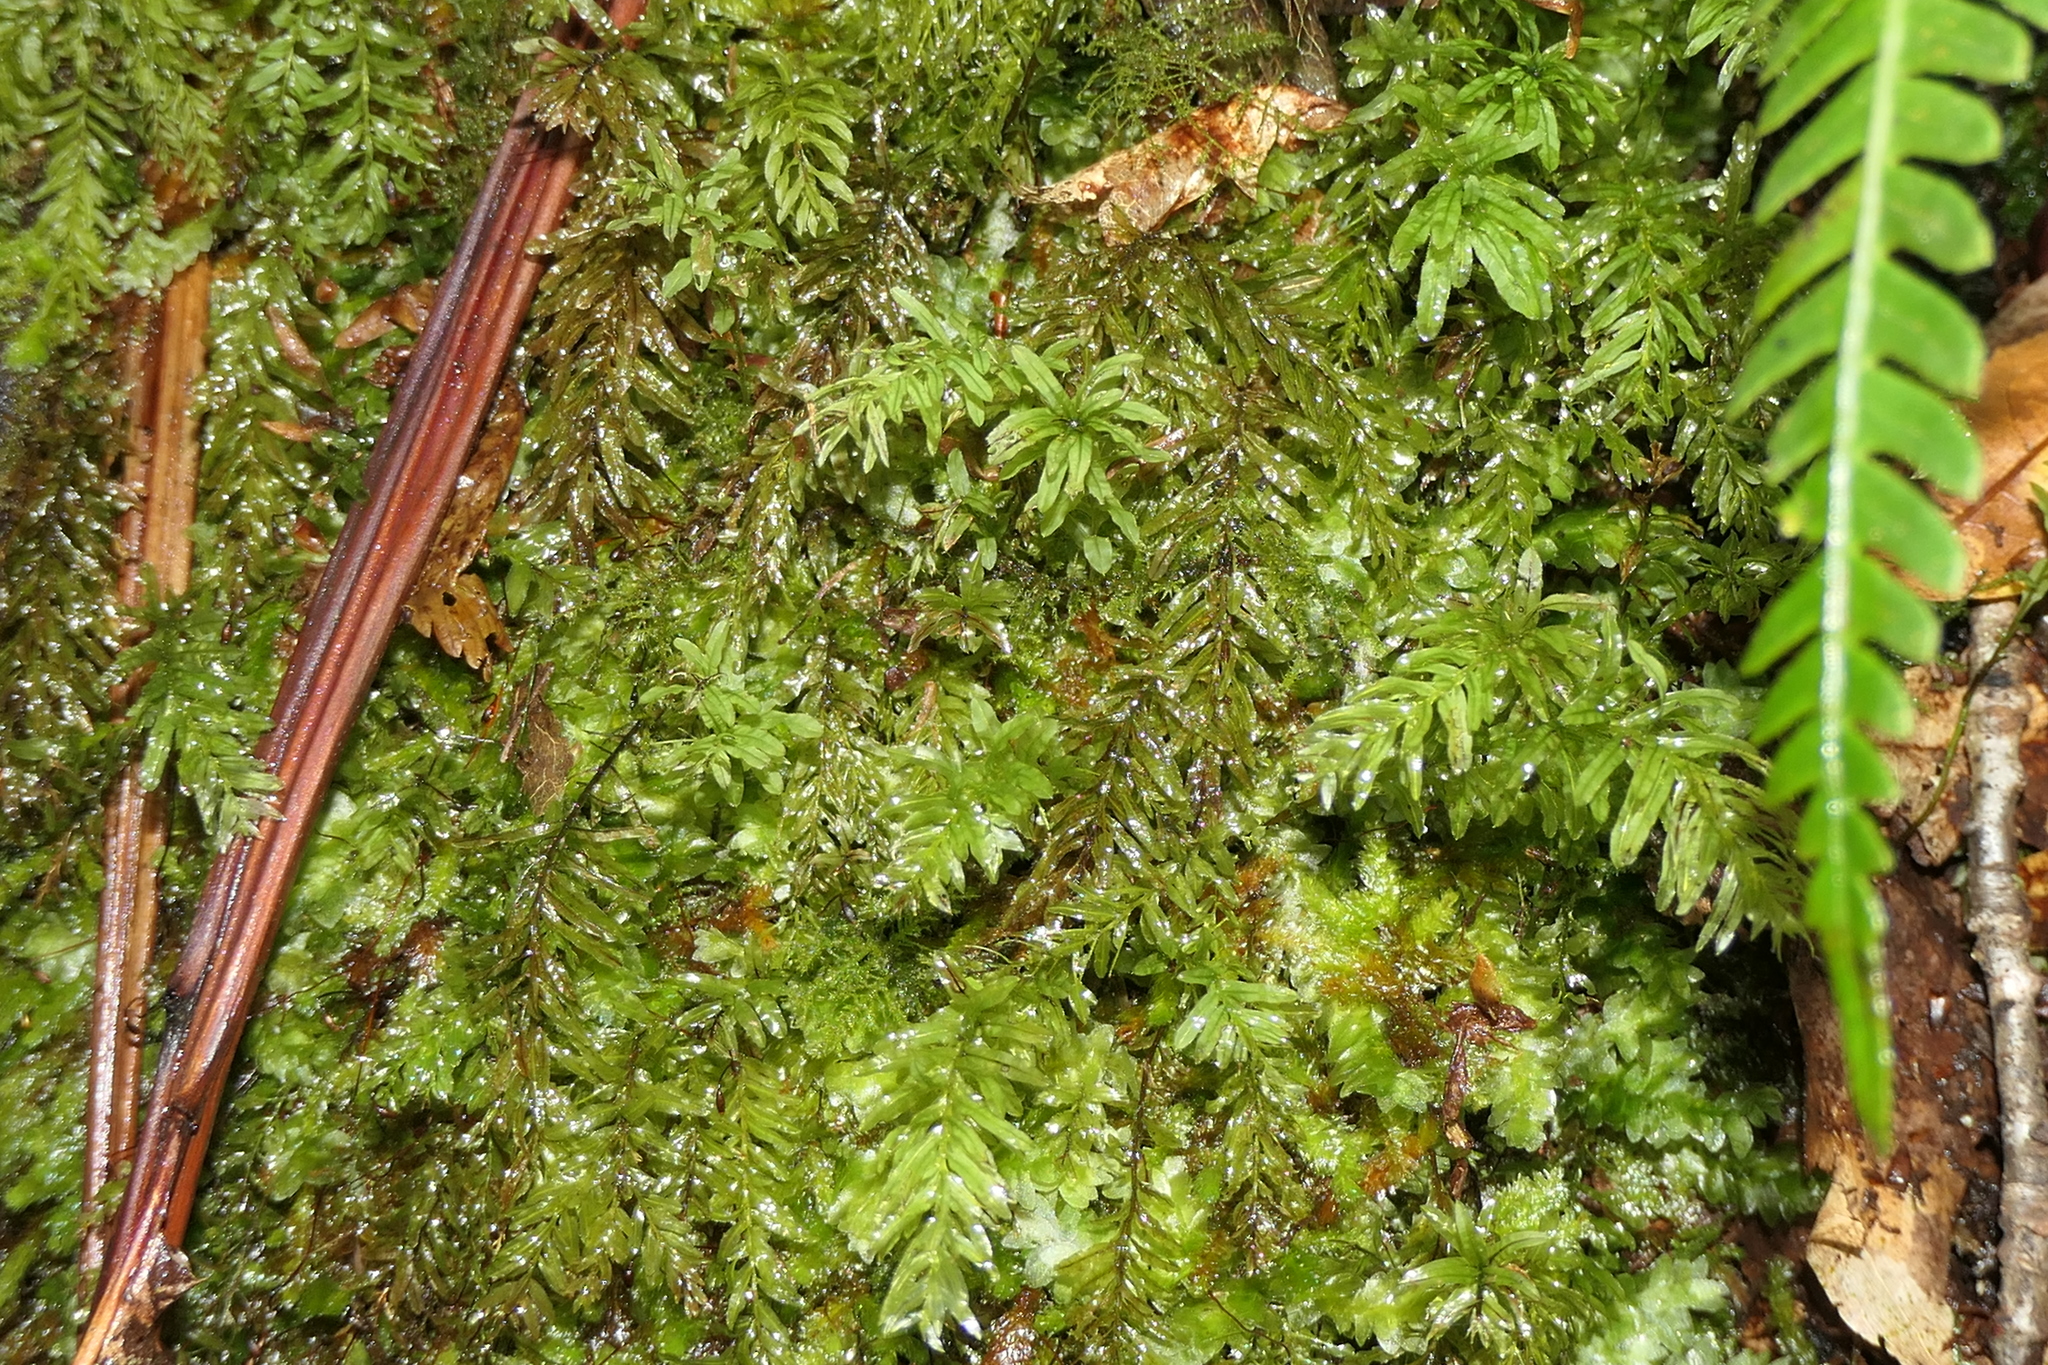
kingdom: Plantae
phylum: Bryophyta
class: Bryopsida
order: Bryales
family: Mniaceae
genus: Plagiomnium
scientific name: Plagiomnium undulatum
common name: Hart's-tongue thyme-moss
